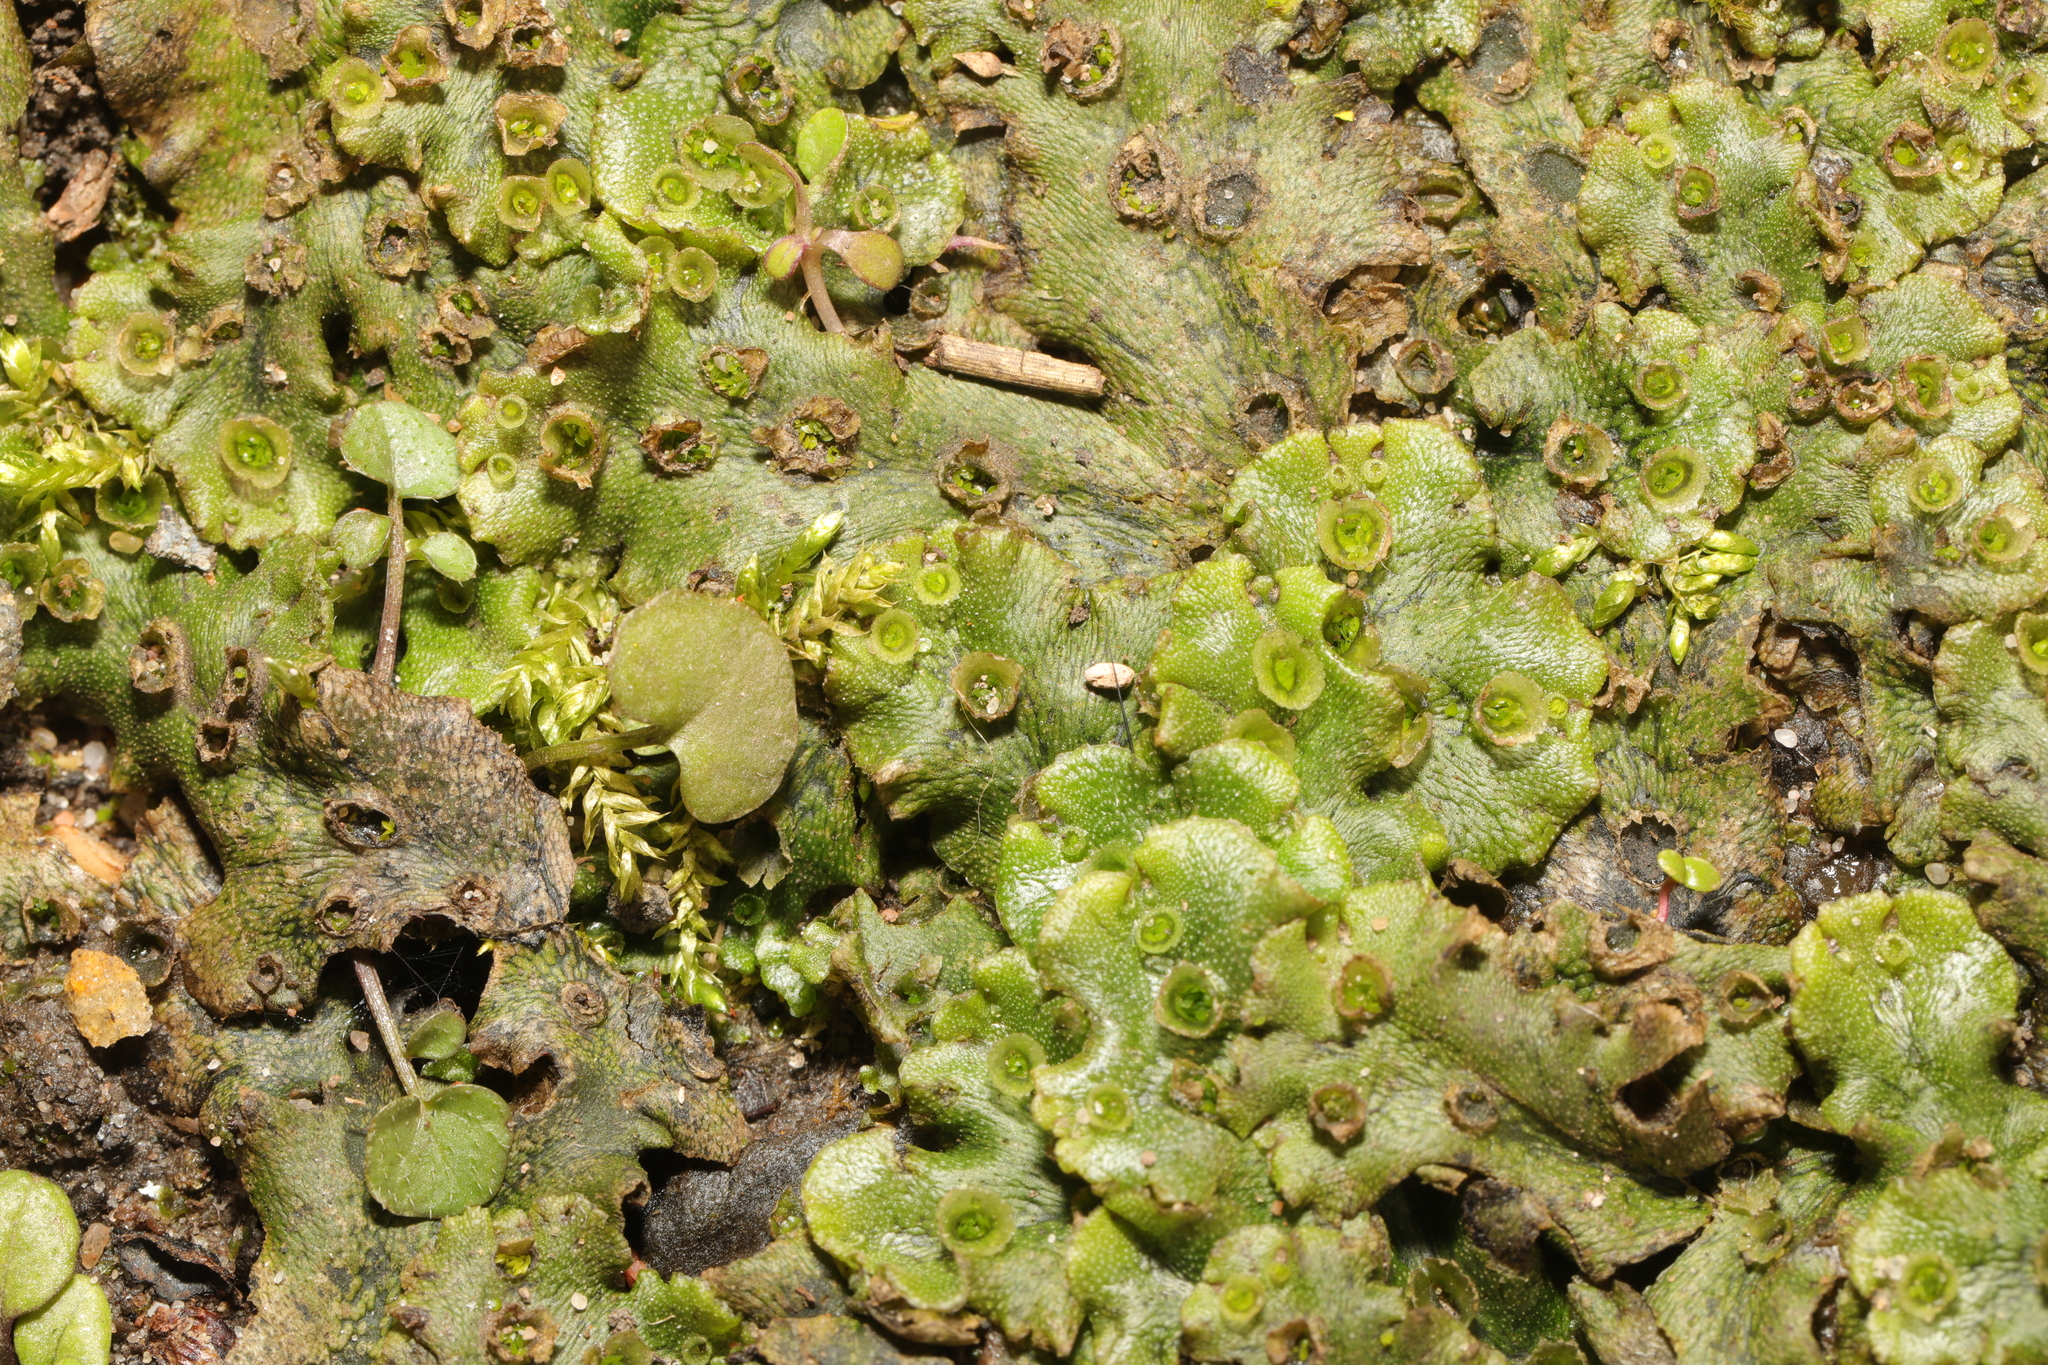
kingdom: Plantae
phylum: Marchantiophyta
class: Marchantiopsida
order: Marchantiales
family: Marchantiaceae
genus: Marchantia
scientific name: Marchantia polymorpha
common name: Common liverwort
